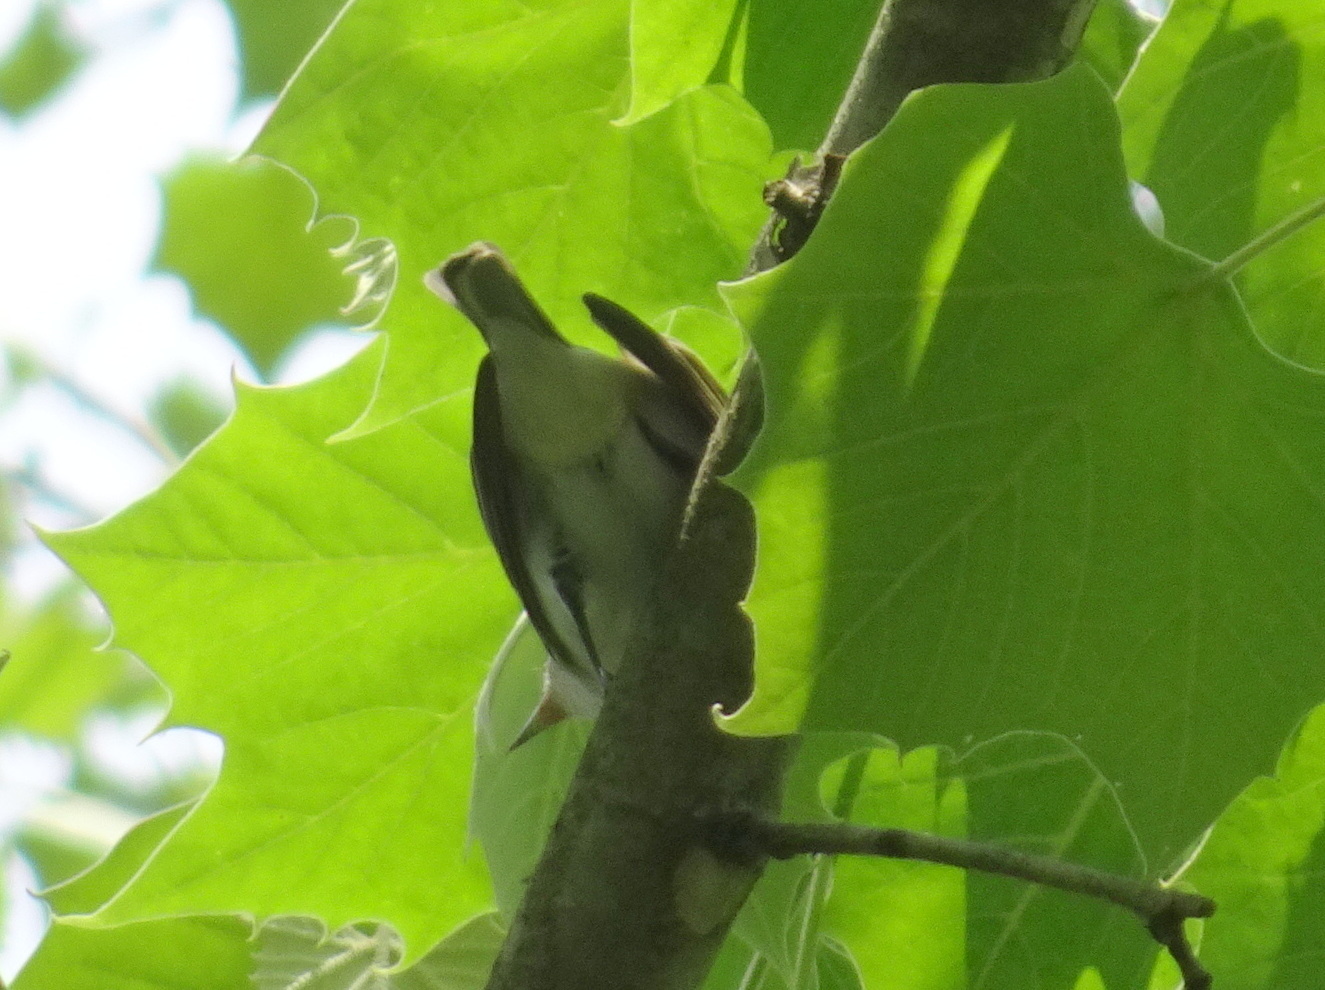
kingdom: Animalia
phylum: Chordata
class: Aves
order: Passeriformes
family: Vireonidae
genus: Vireo
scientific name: Vireo griseus
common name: White-eyed vireo
